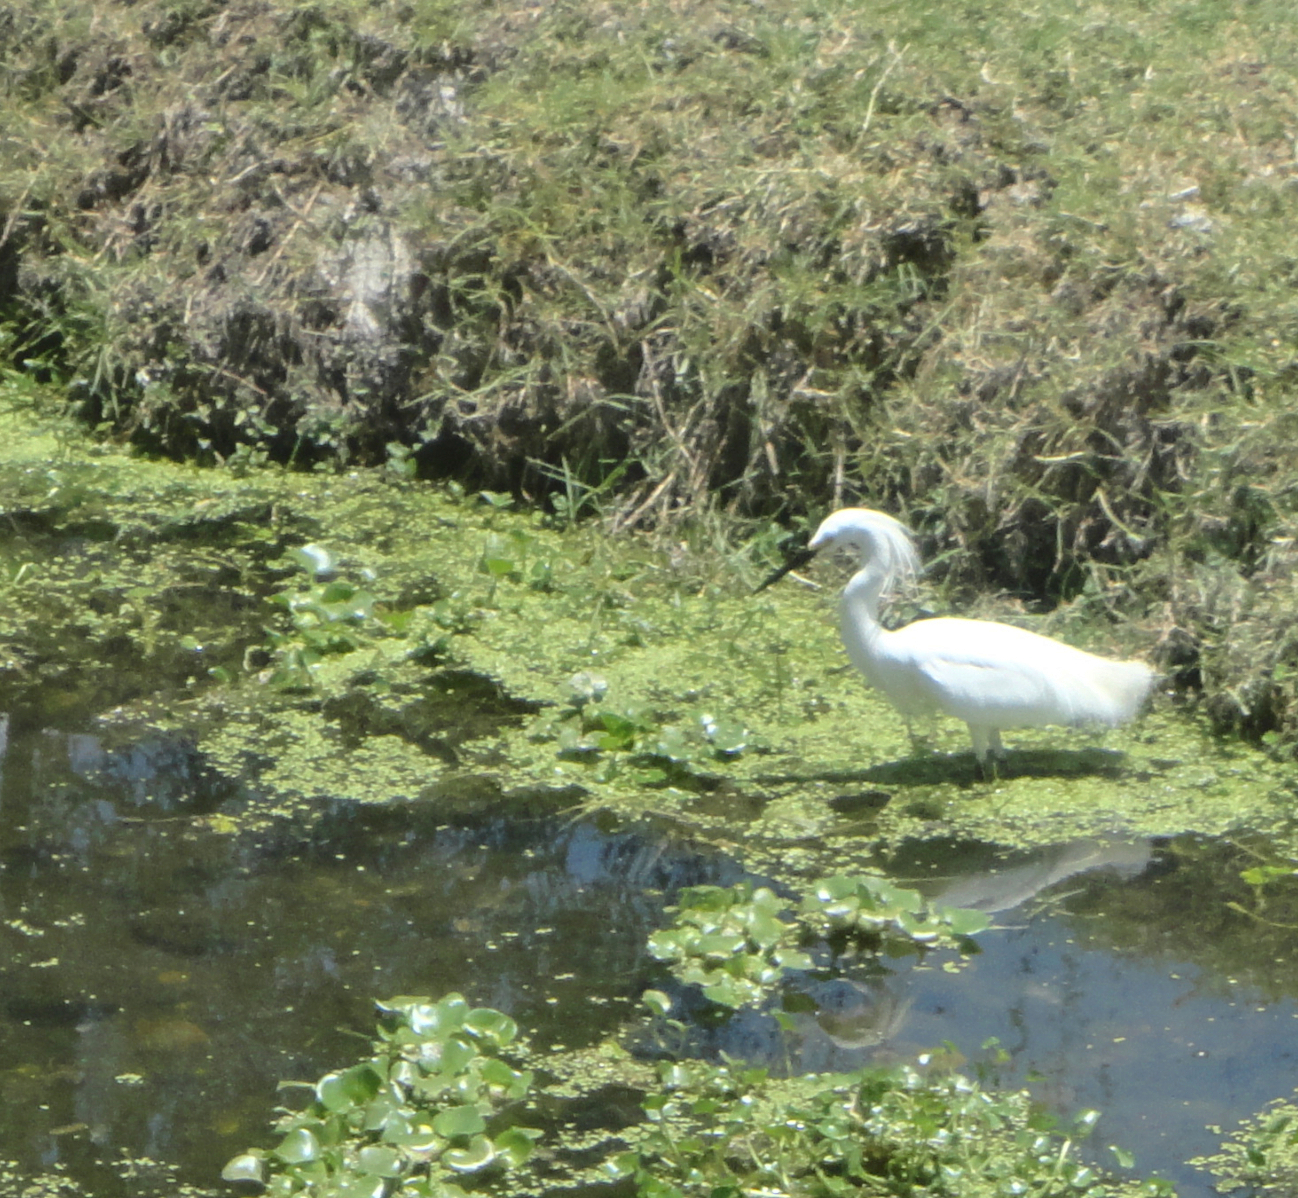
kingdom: Animalia
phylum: Chordata
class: Aves
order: Pelecaniformes
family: Ardeidae
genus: Egretta
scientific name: Egretta thula
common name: Snowy egret
